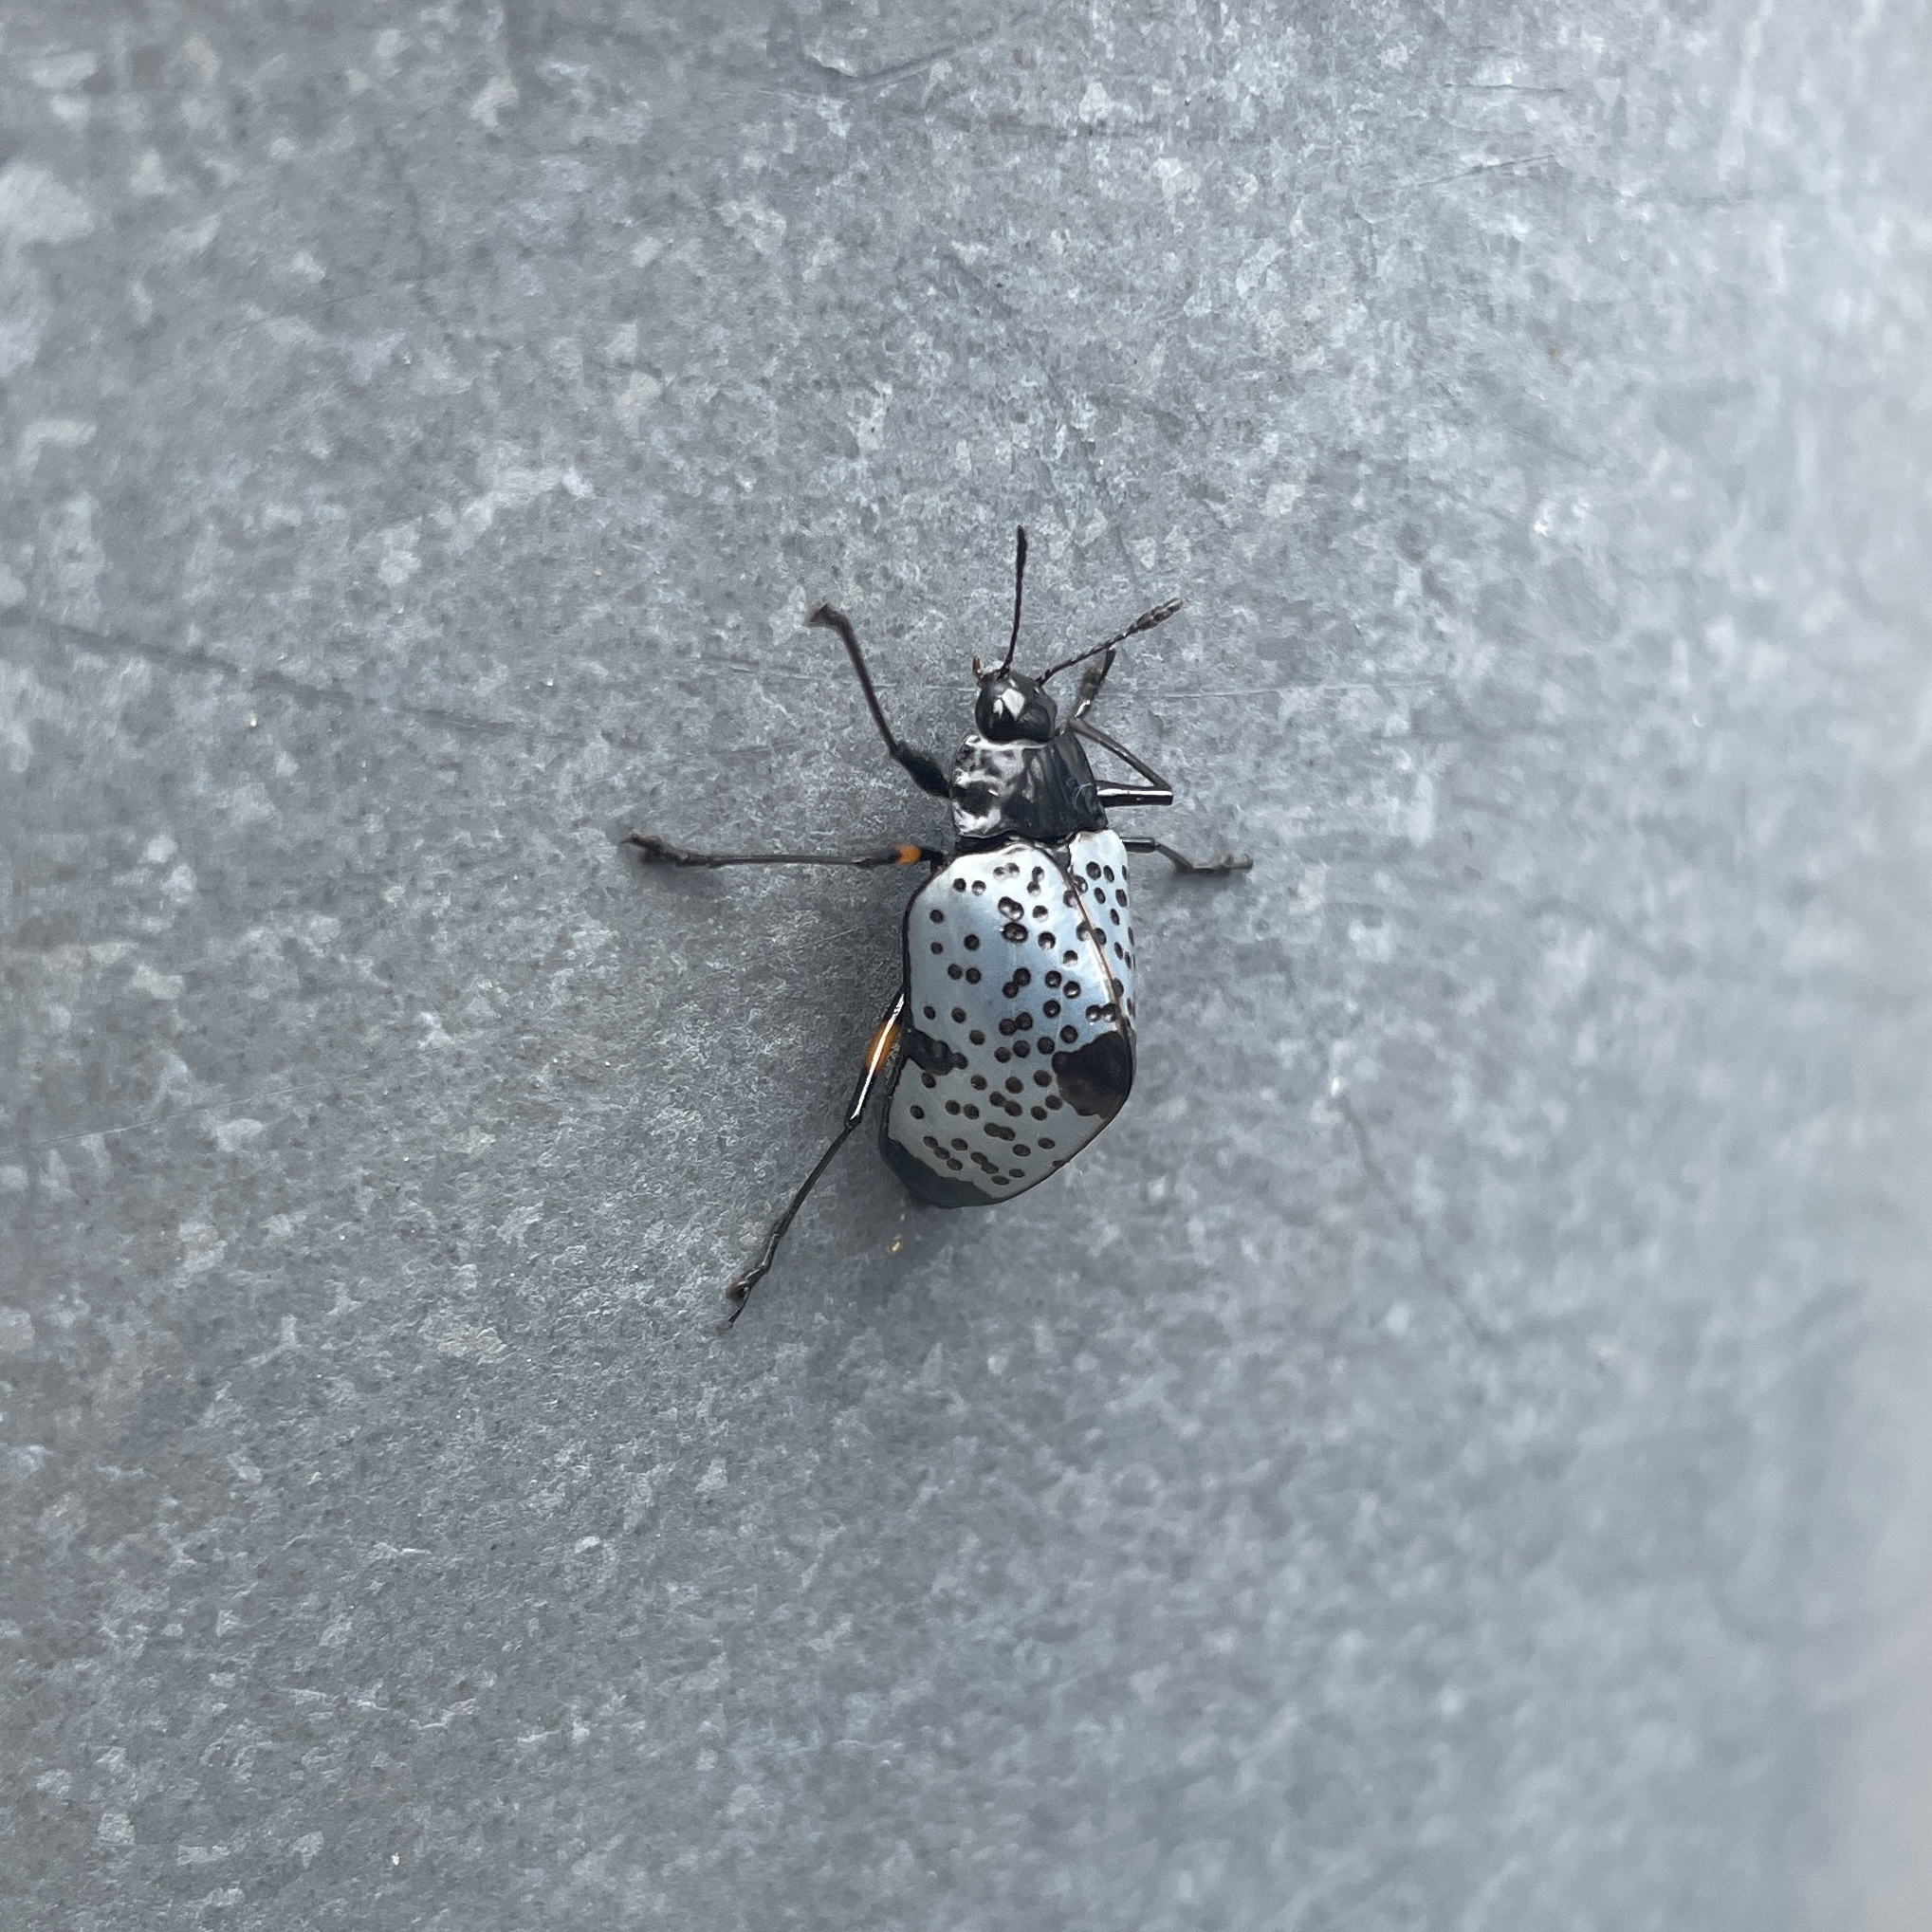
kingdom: Animalia
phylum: Arthropoda
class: Insecta
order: Coleoptera
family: Erotylidae
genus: Gibbifer
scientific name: Gibbifer
